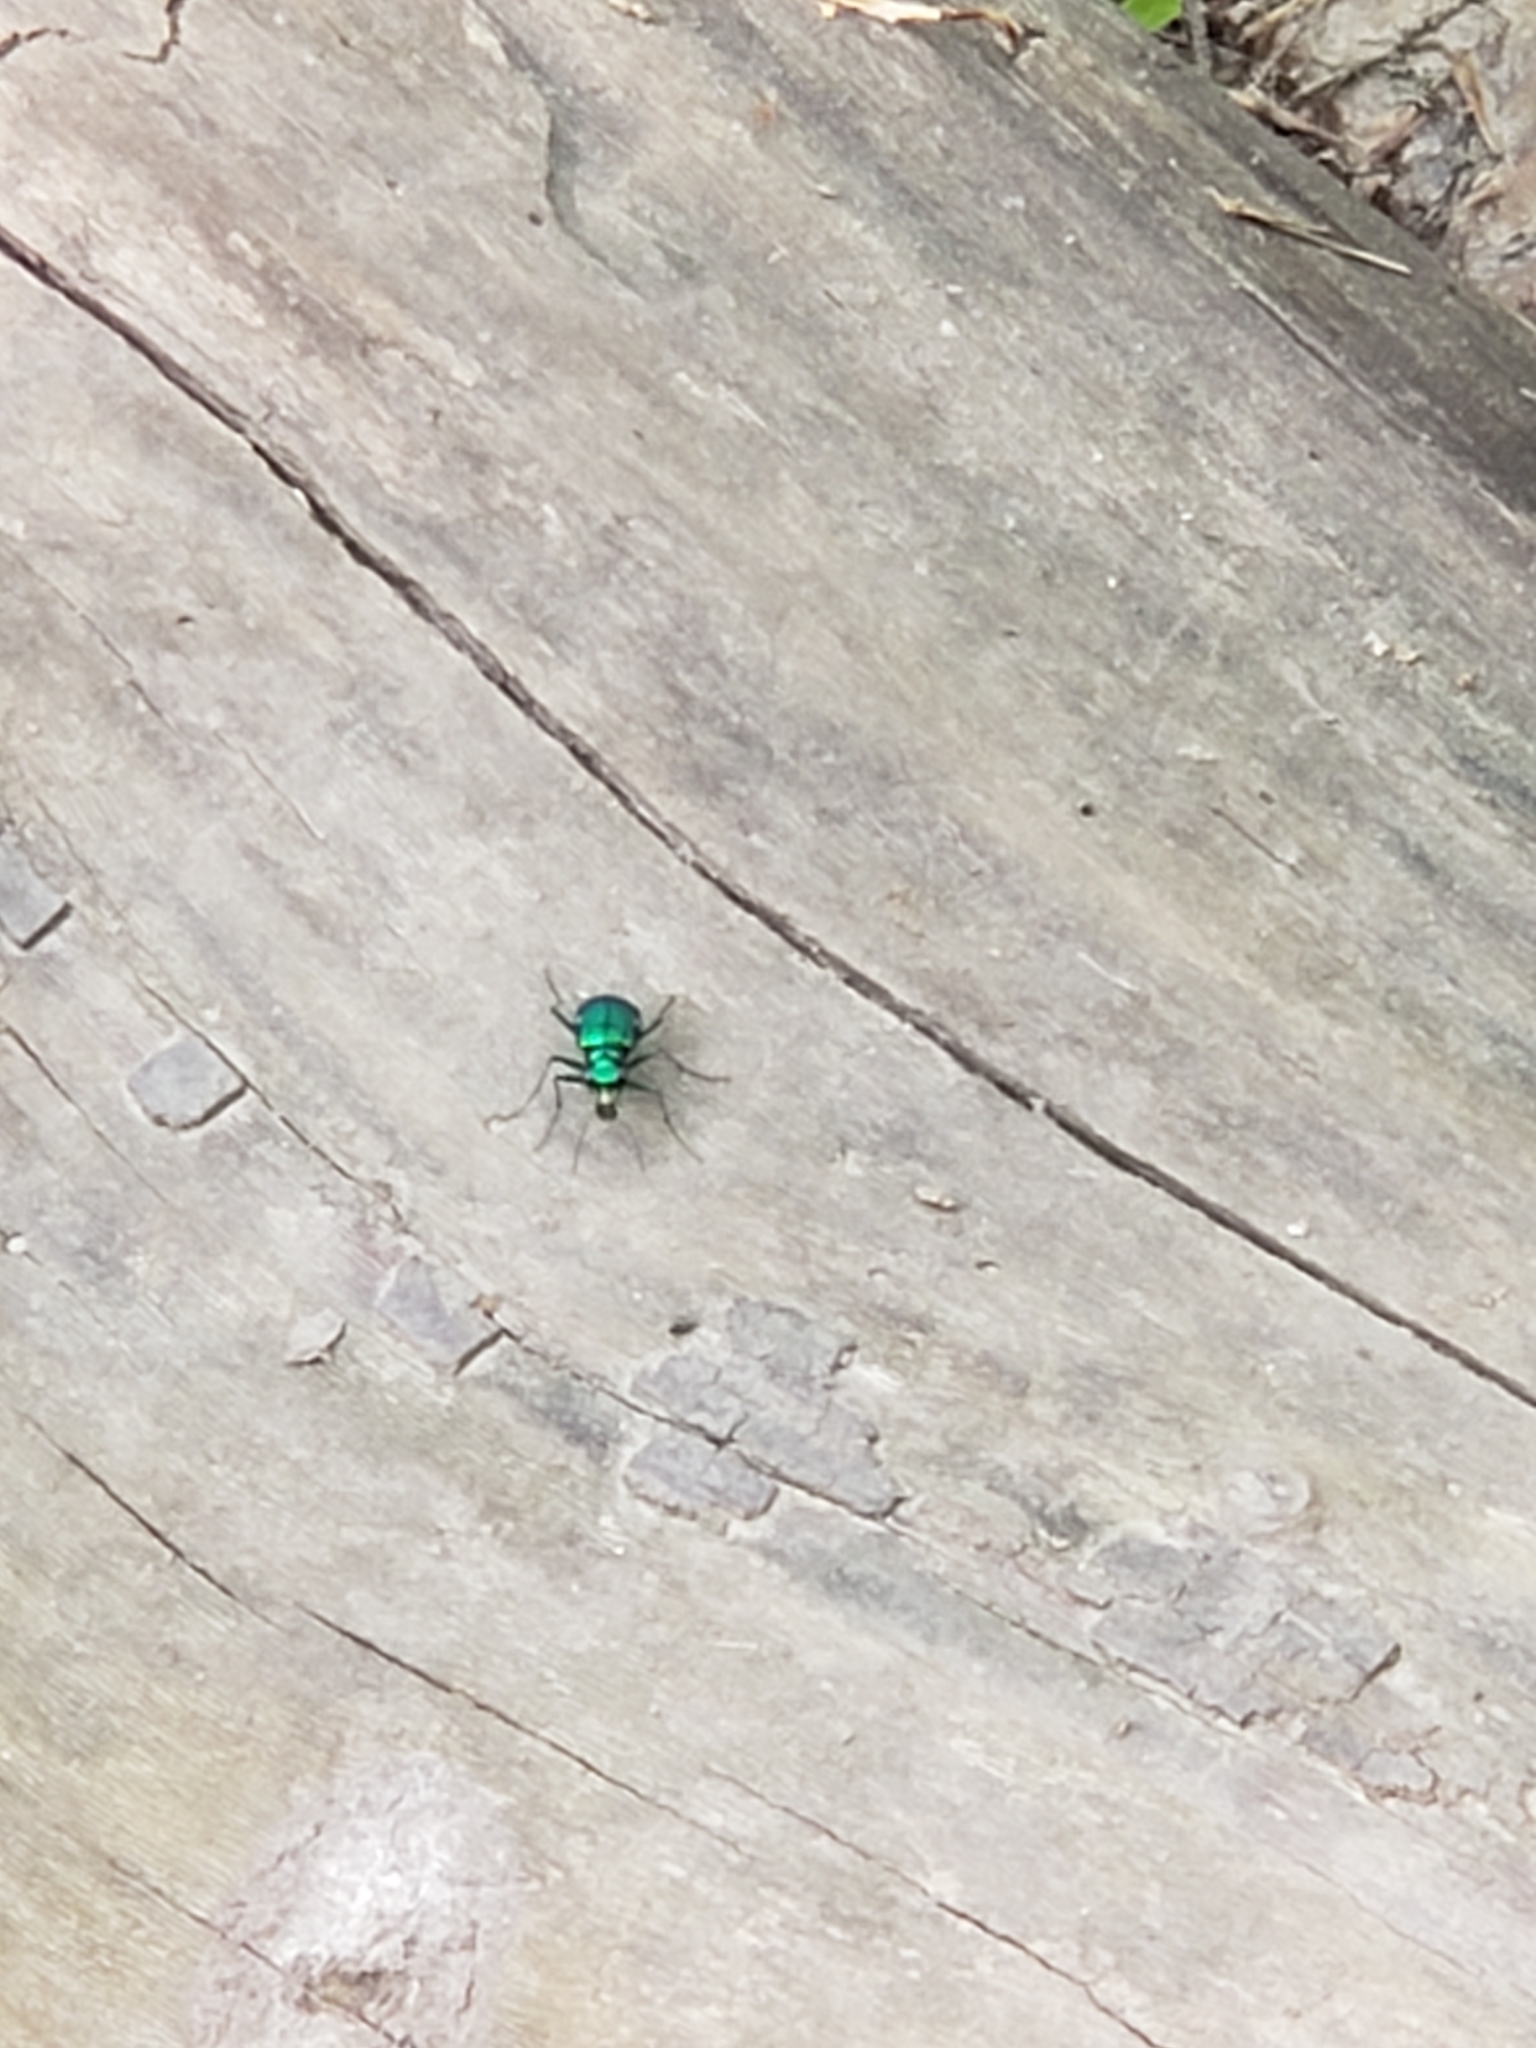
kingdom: Animalia
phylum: Arthropoda
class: Insecta
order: Coleoptera
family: Carabidae
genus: Cicindela
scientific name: Cicindela sexguttata
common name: Six-spotted tiger beetle
